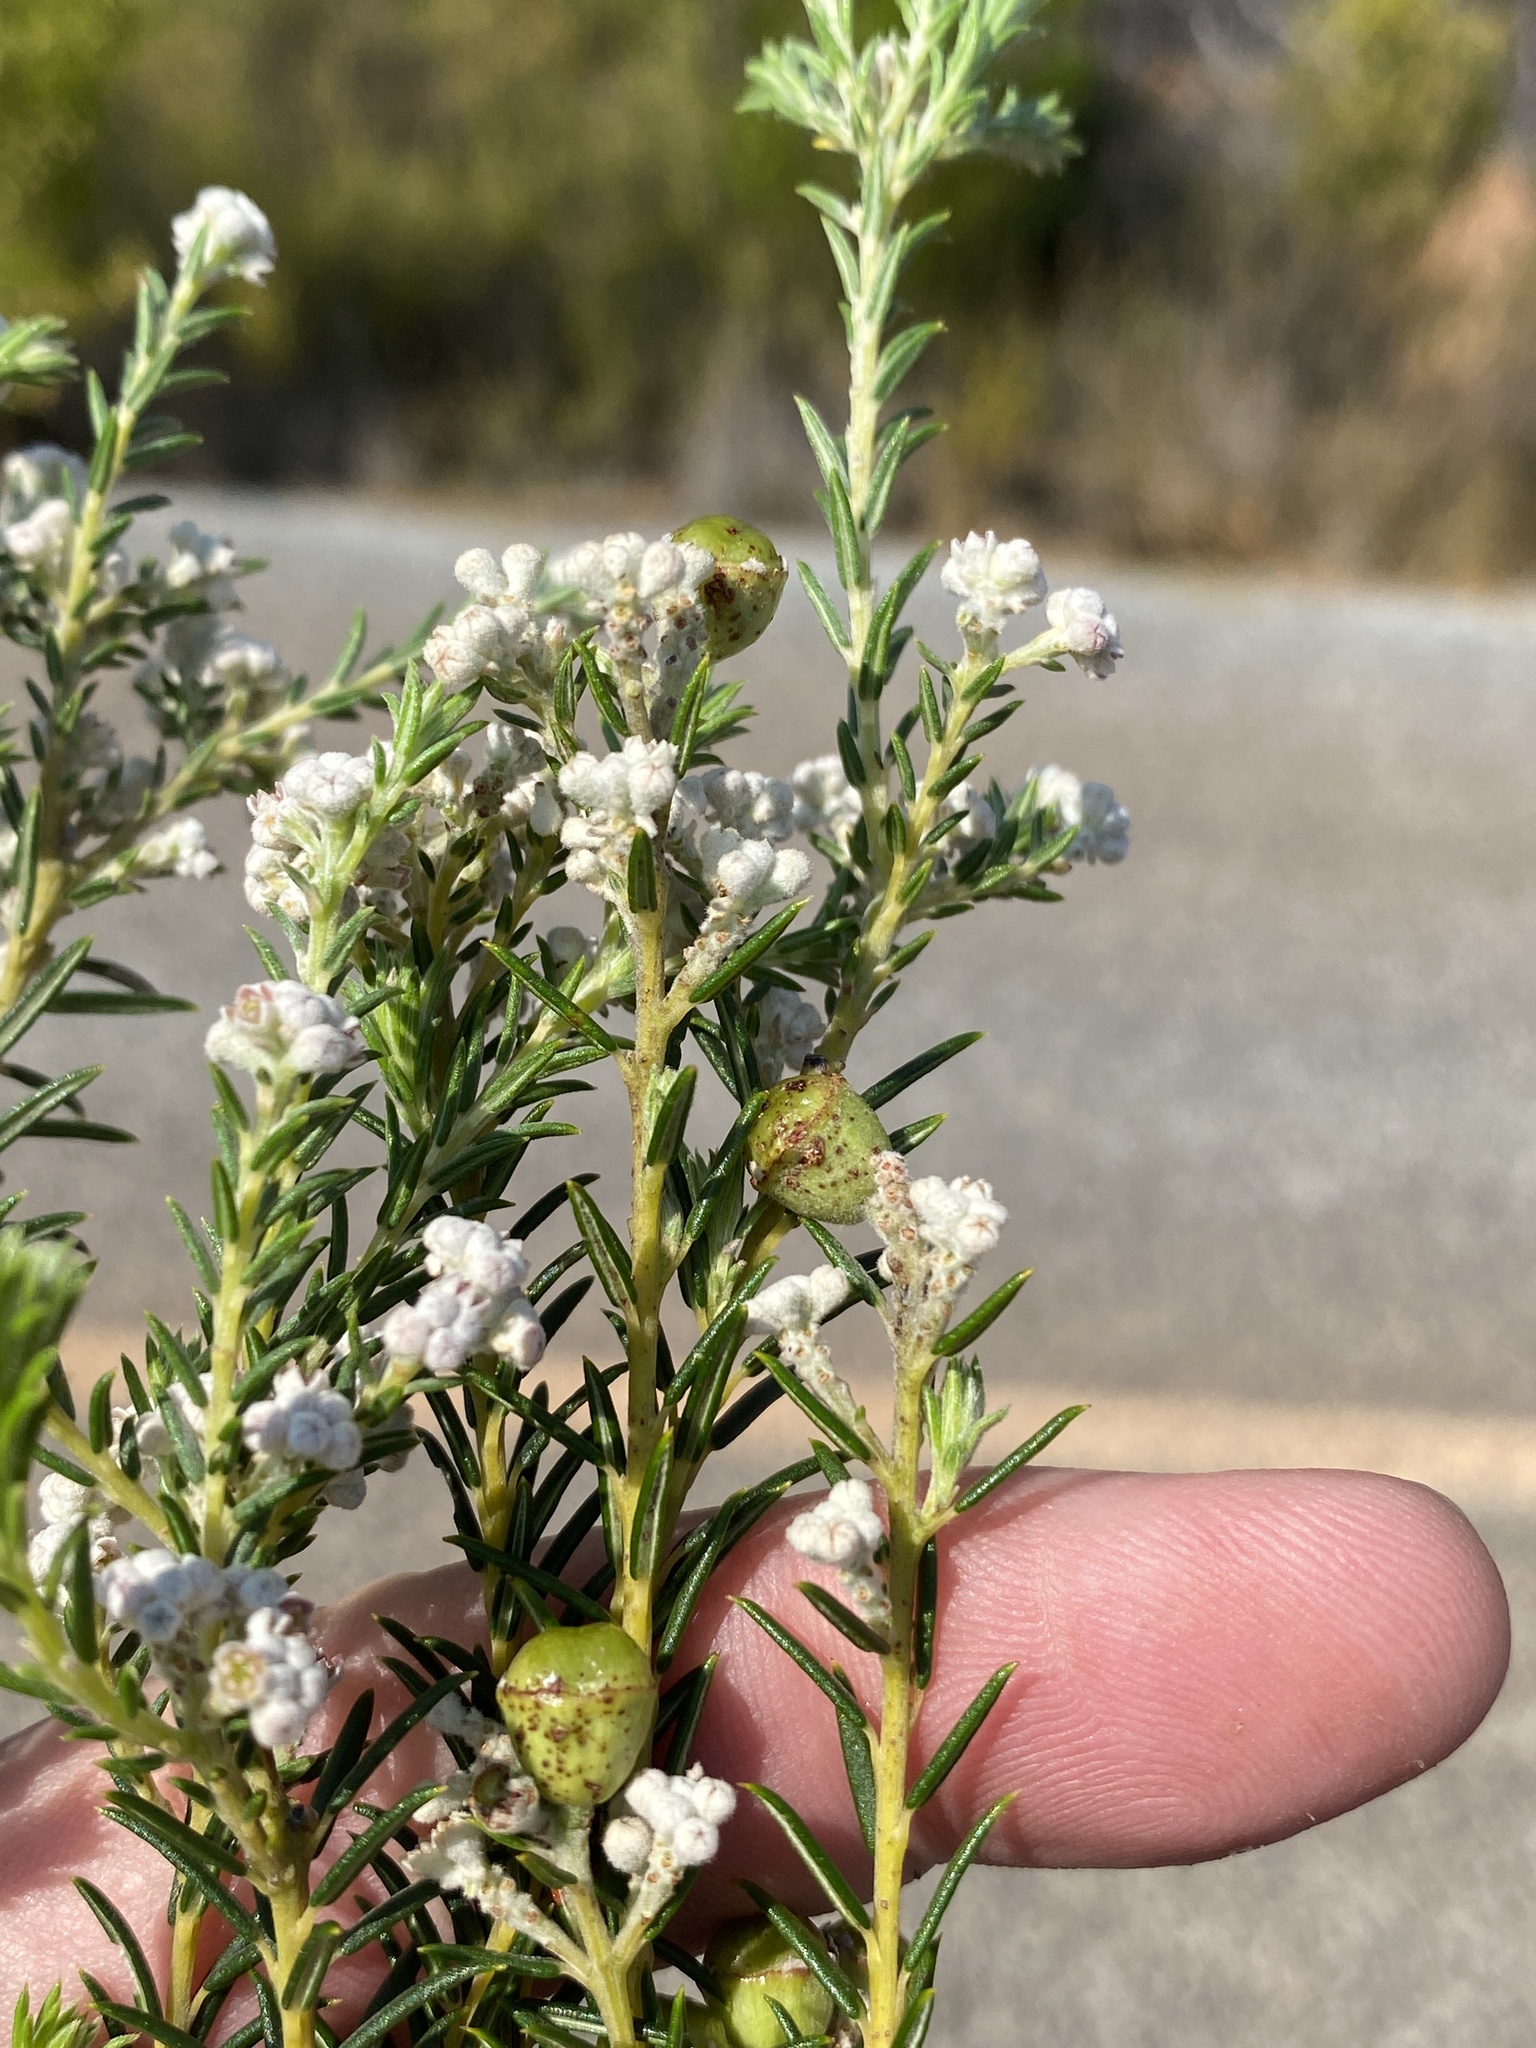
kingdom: Plantae
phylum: Tracheophyta
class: Magnoliopsida
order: Rosales
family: Rhamnaceae
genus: Phylica
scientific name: Phylica cryptandroides
